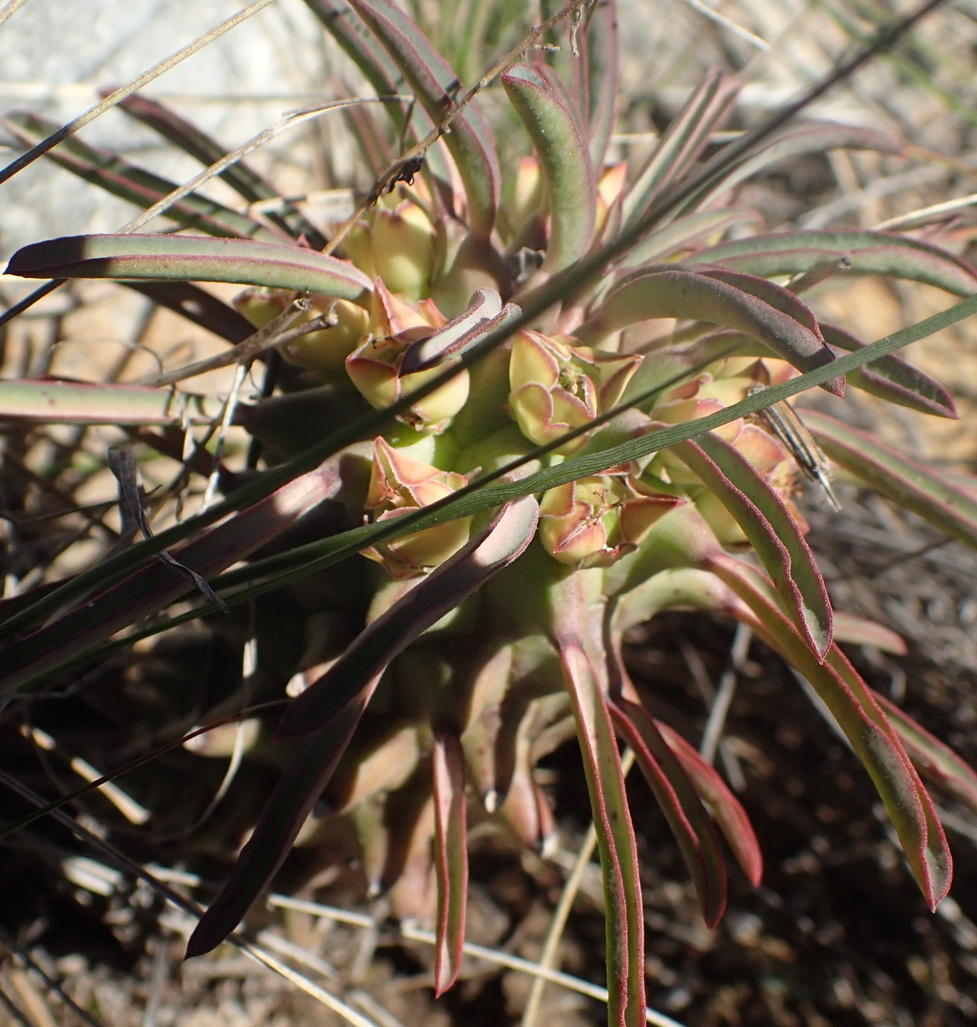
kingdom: Plantae
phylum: Tracheophyta
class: Magnoliopsida
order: Malpighiales
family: Euphorbiaceae
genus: Euphorbia
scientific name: Euphorbia clandestina
